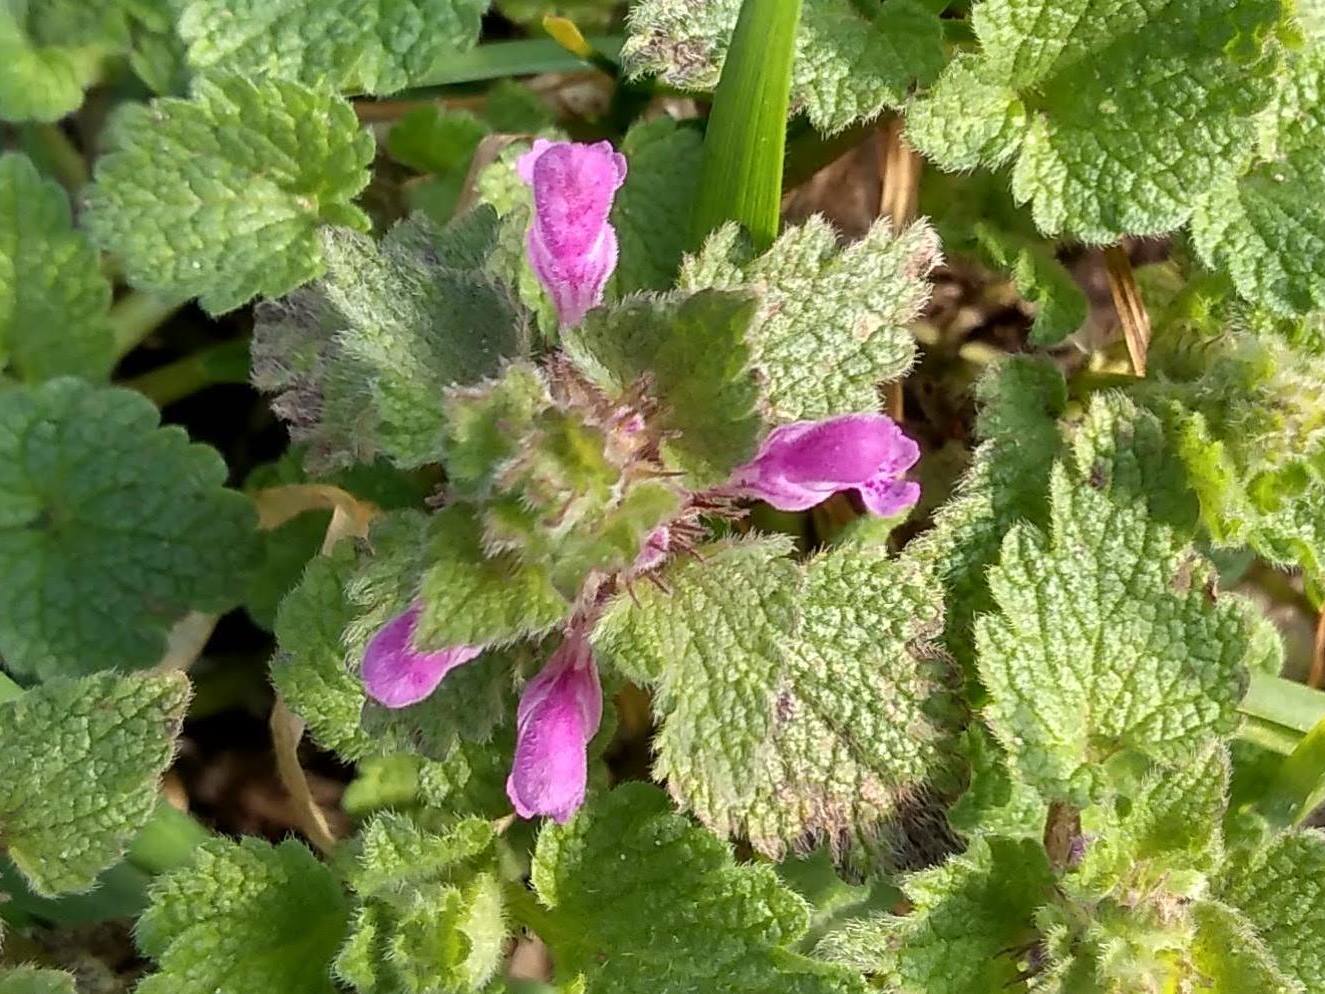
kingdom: Plantae
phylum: Tracheophyta
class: Magnoliopsida
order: Lamiales
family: Lamiaceae
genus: Lamium
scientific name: Lamium purpureum
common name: Red dead-nettle
